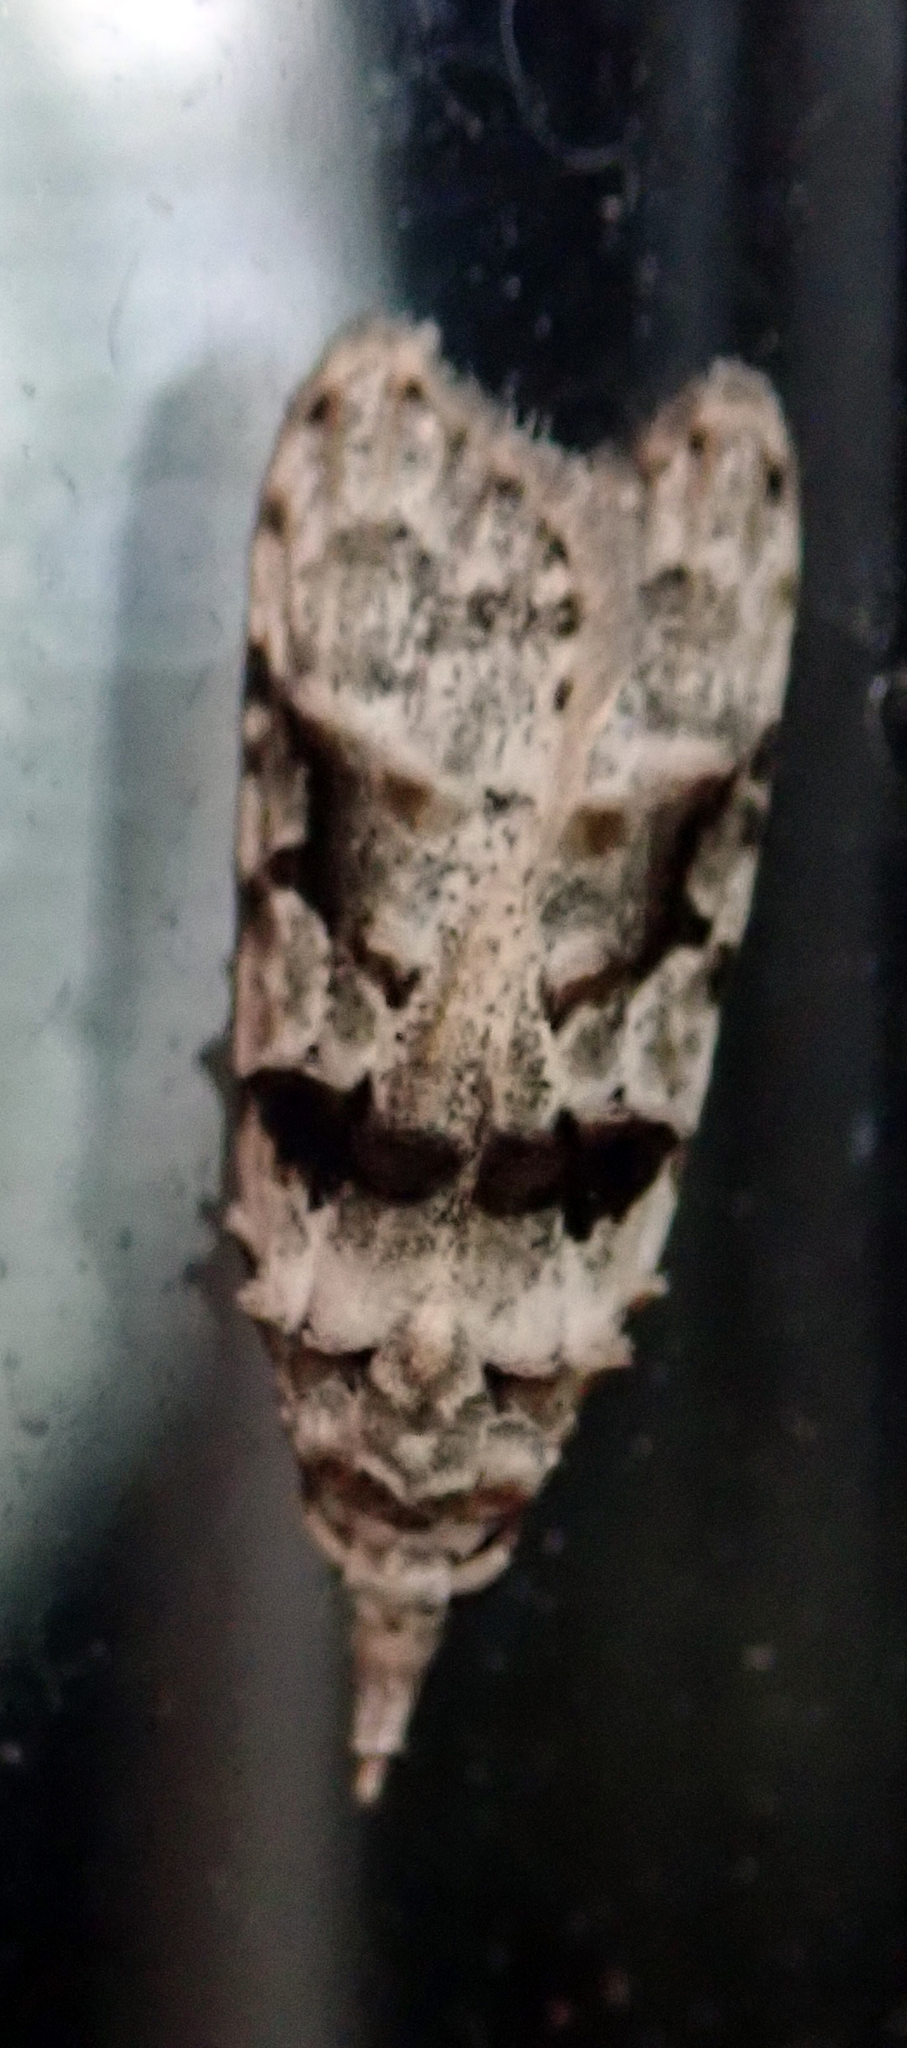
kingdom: Animalia
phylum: Arthropoda
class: Insecta
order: Lepidoptera
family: Carposinidae
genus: Coscinoptycha
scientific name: Coscinoptycha improbana
